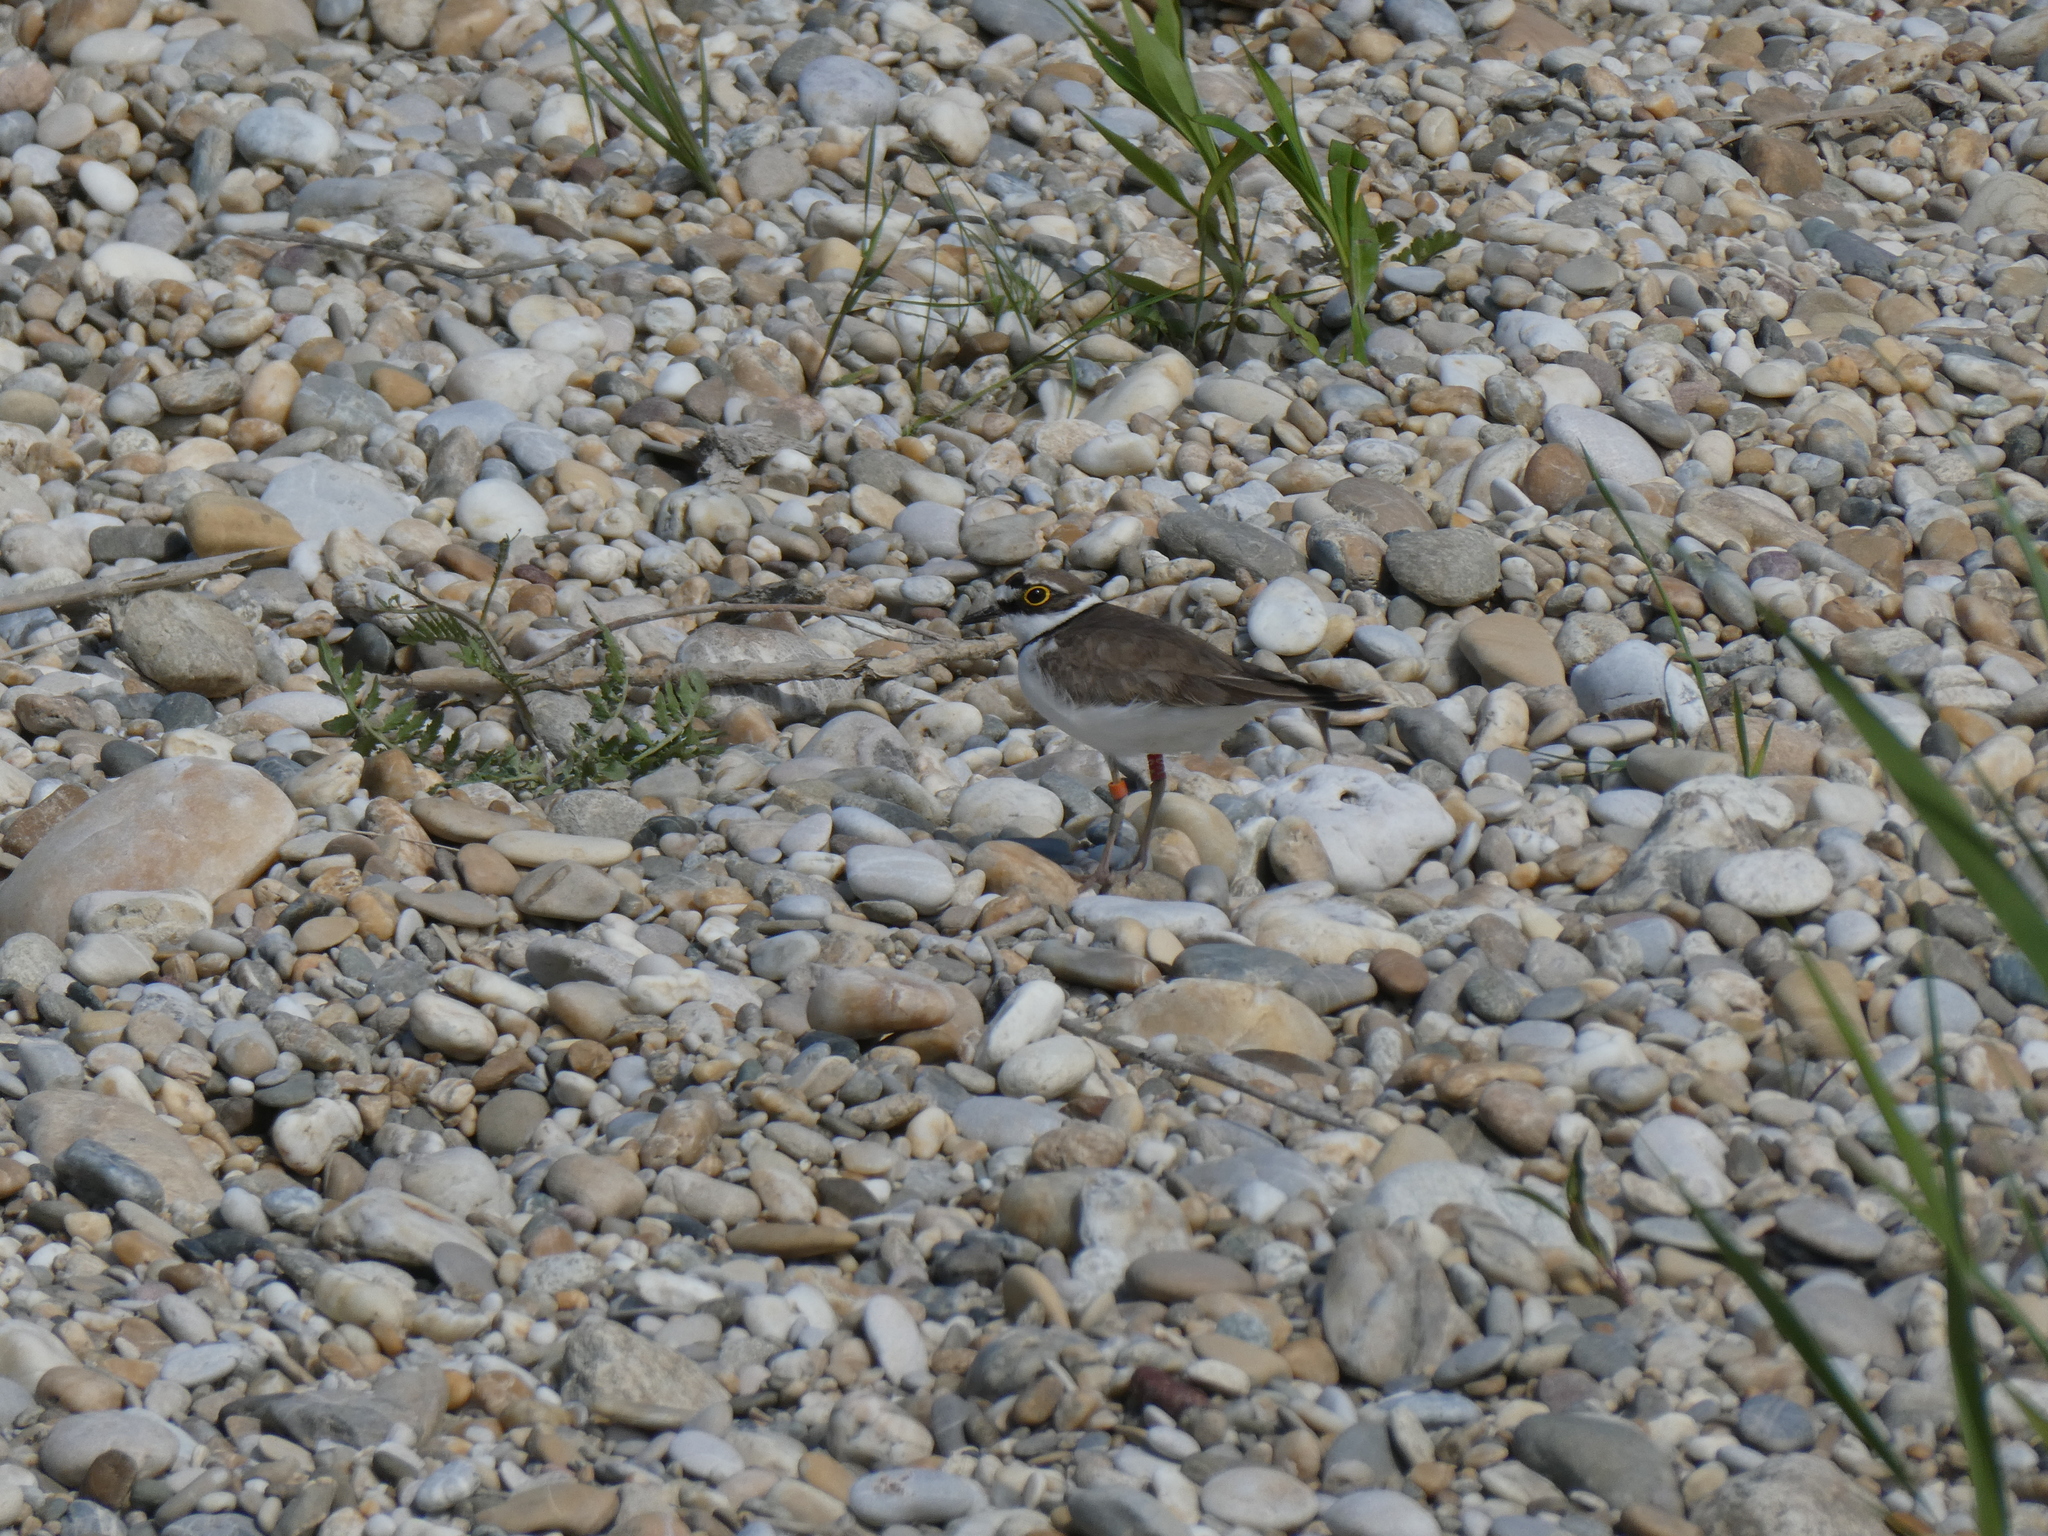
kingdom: Animalia
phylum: Chordata
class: Aves
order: Charadriiformes
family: Charadriidae
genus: Charadrius
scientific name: Charadrius dubius
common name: Little ringed plover
